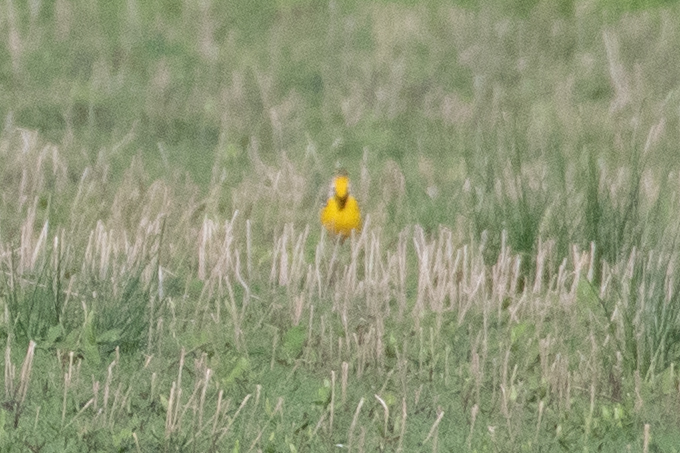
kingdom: Animalia
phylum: Chordata
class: Aves
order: Passeriformes
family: Icteridae
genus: Sturnella
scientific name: Sturnella neglecta
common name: Western meadowlark
